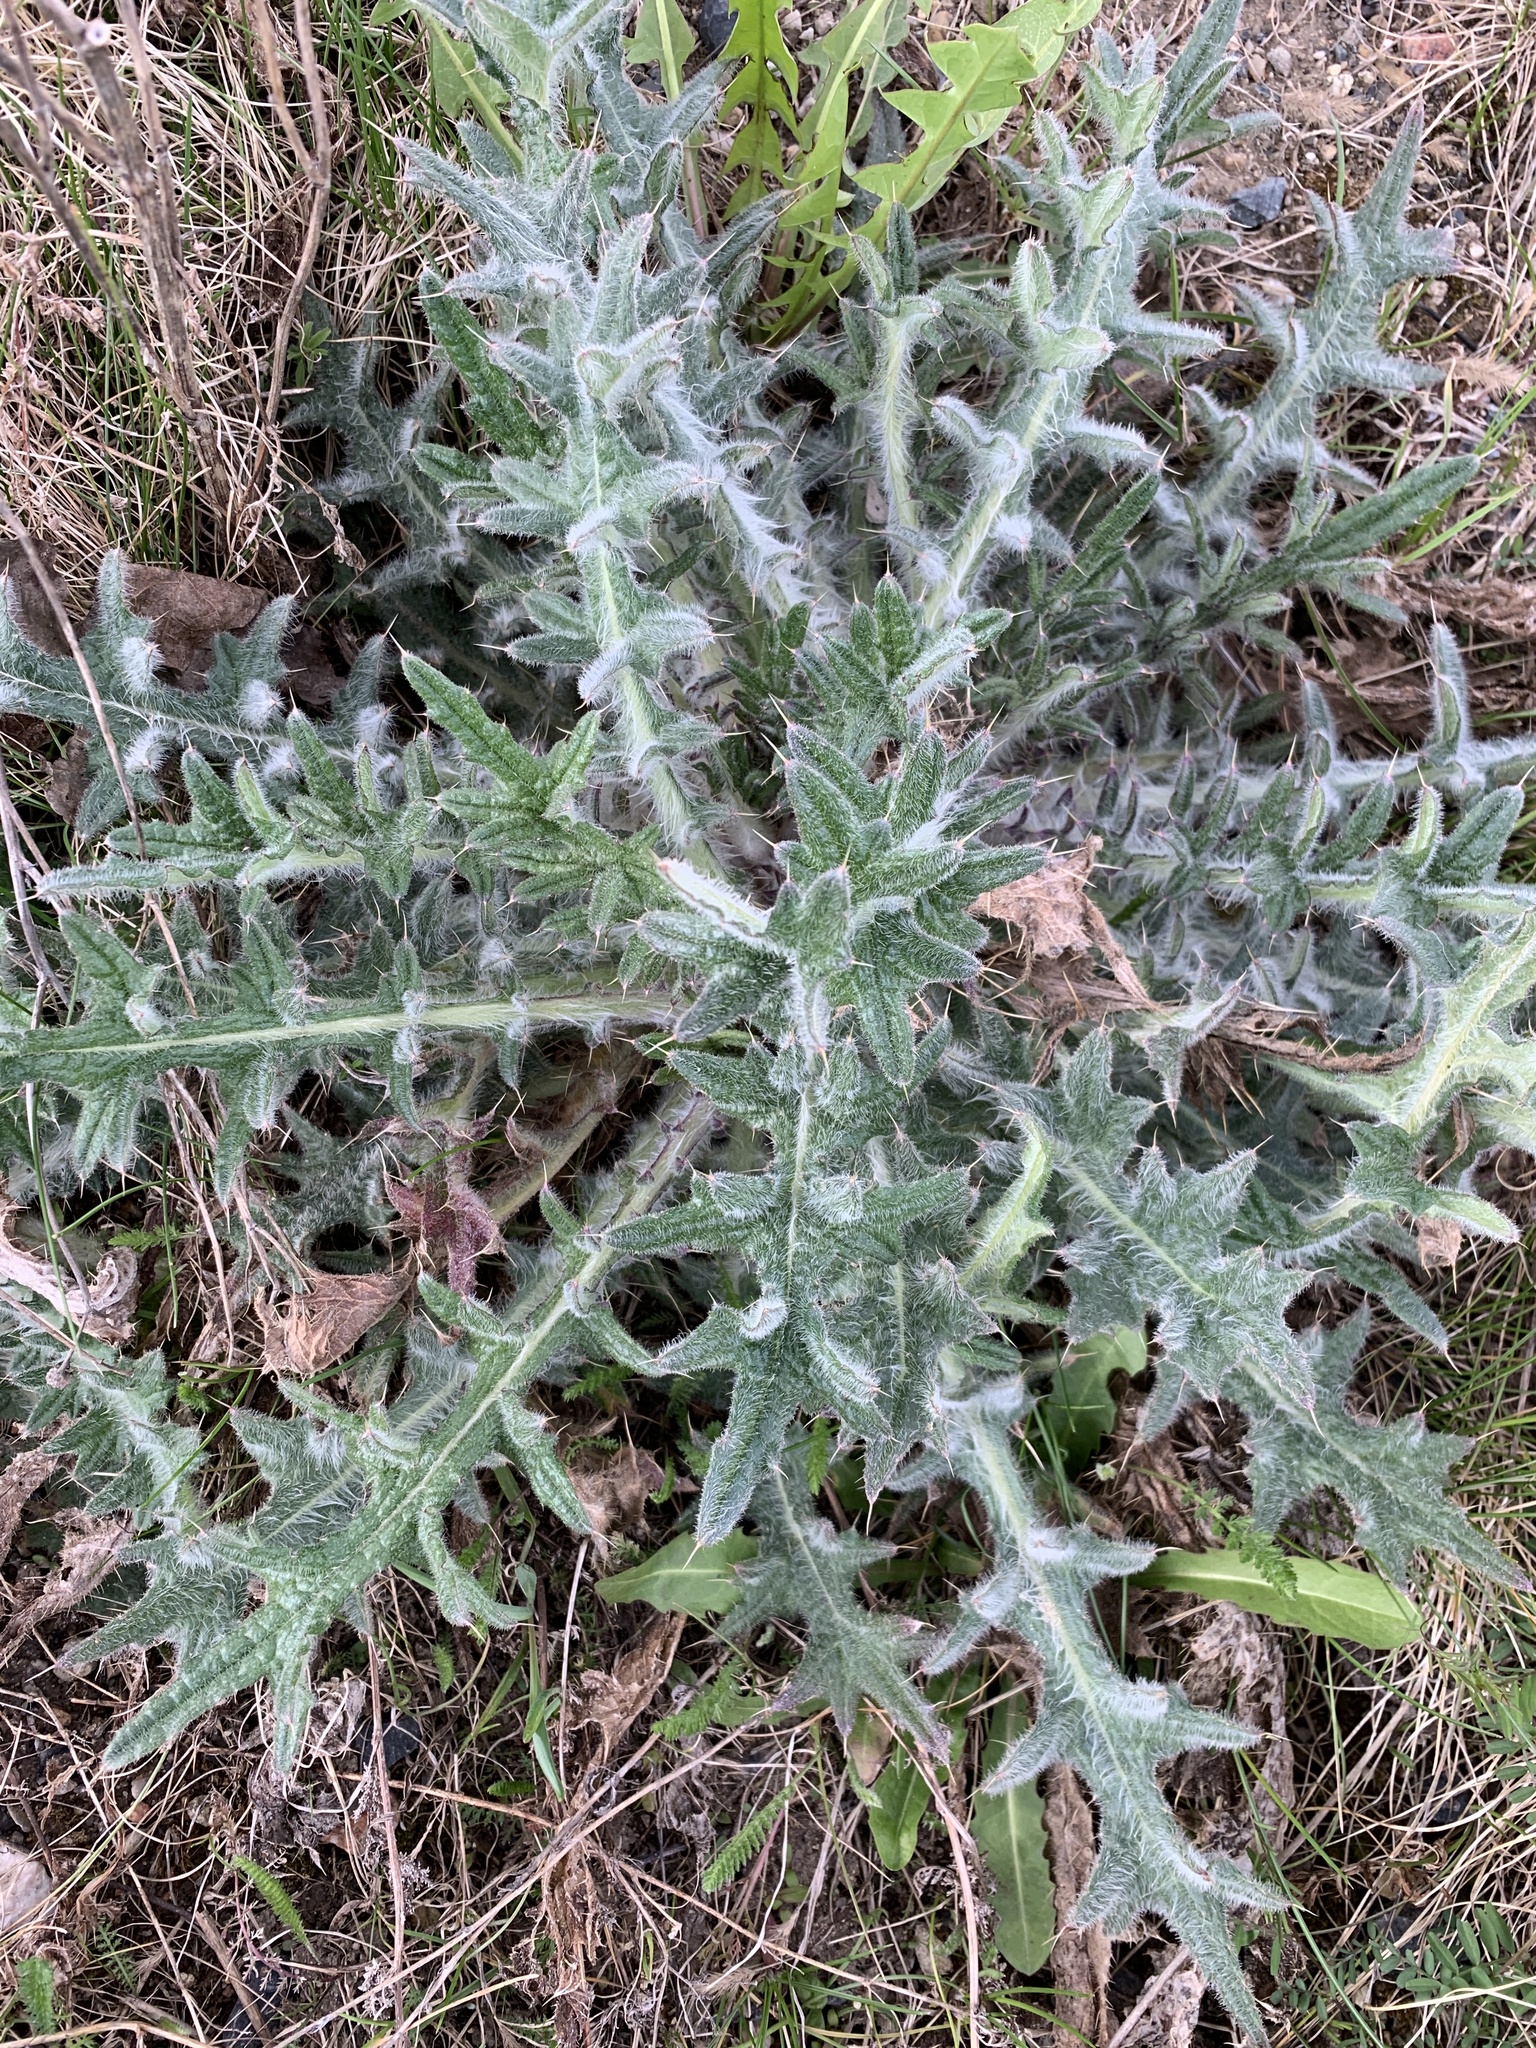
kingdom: Plantae
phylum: Tracheophyta
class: Magnoliopsida
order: Asterales
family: Asteraceae
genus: Cirsium
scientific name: Cirsium vulgare
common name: Bull thistle
